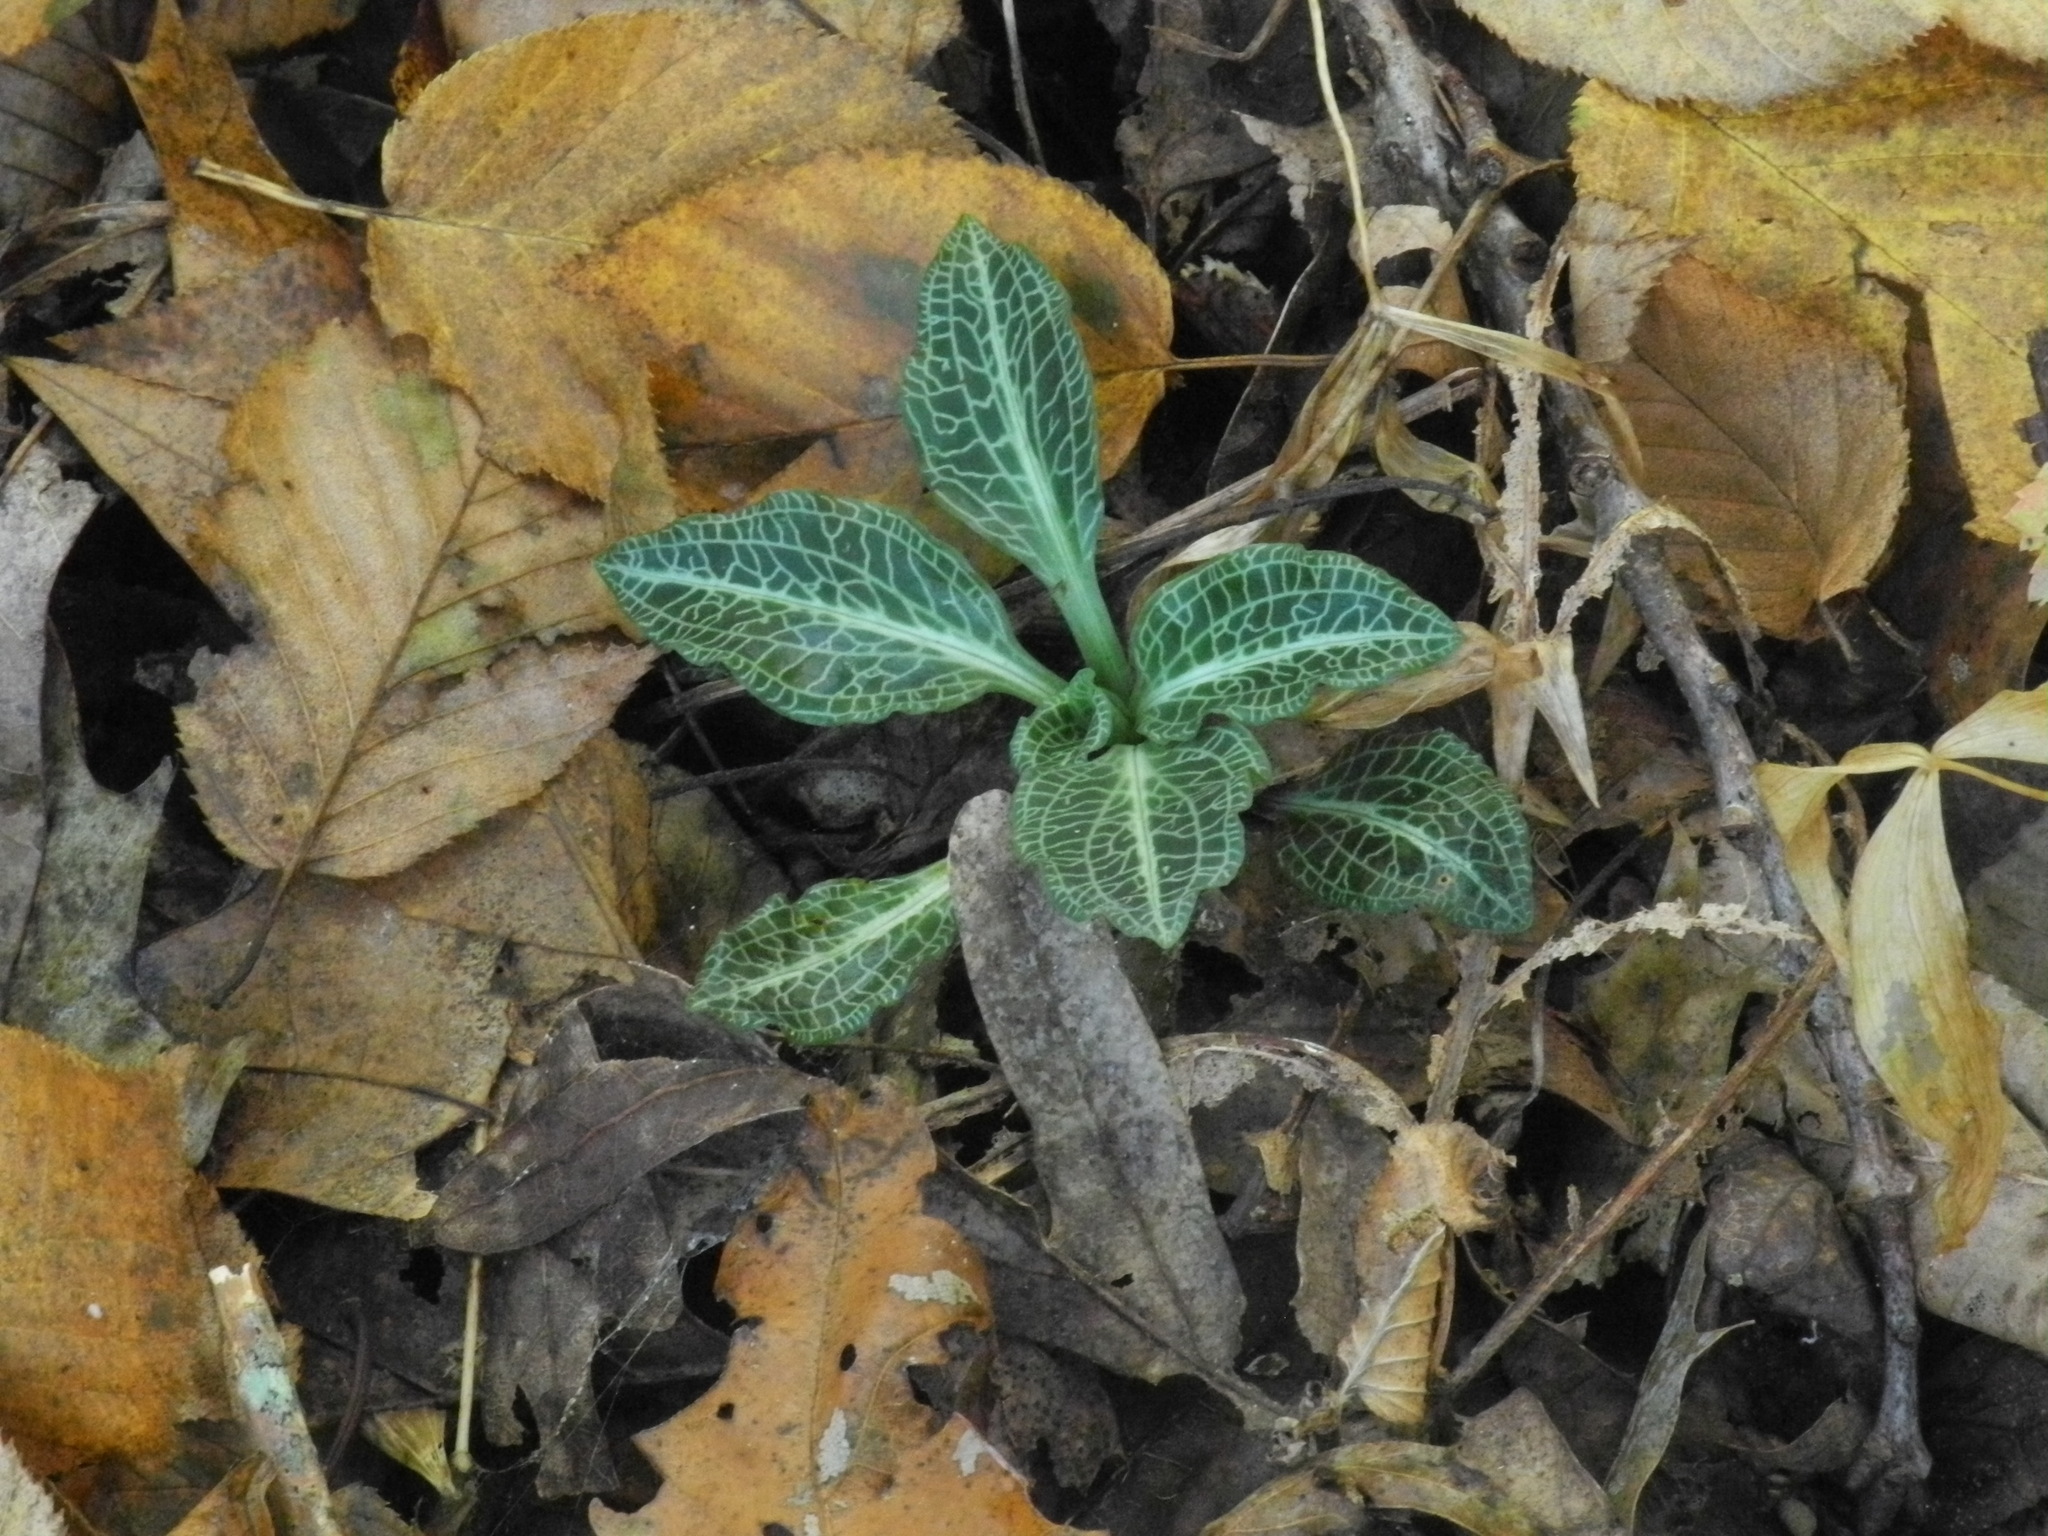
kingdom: Plantae
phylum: Tracheophyta
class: Liliopsida
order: Asparagales
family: Orchidaceae
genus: Goodyera
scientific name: Goodyera pubescens
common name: Downy rattlesnake-plantain
